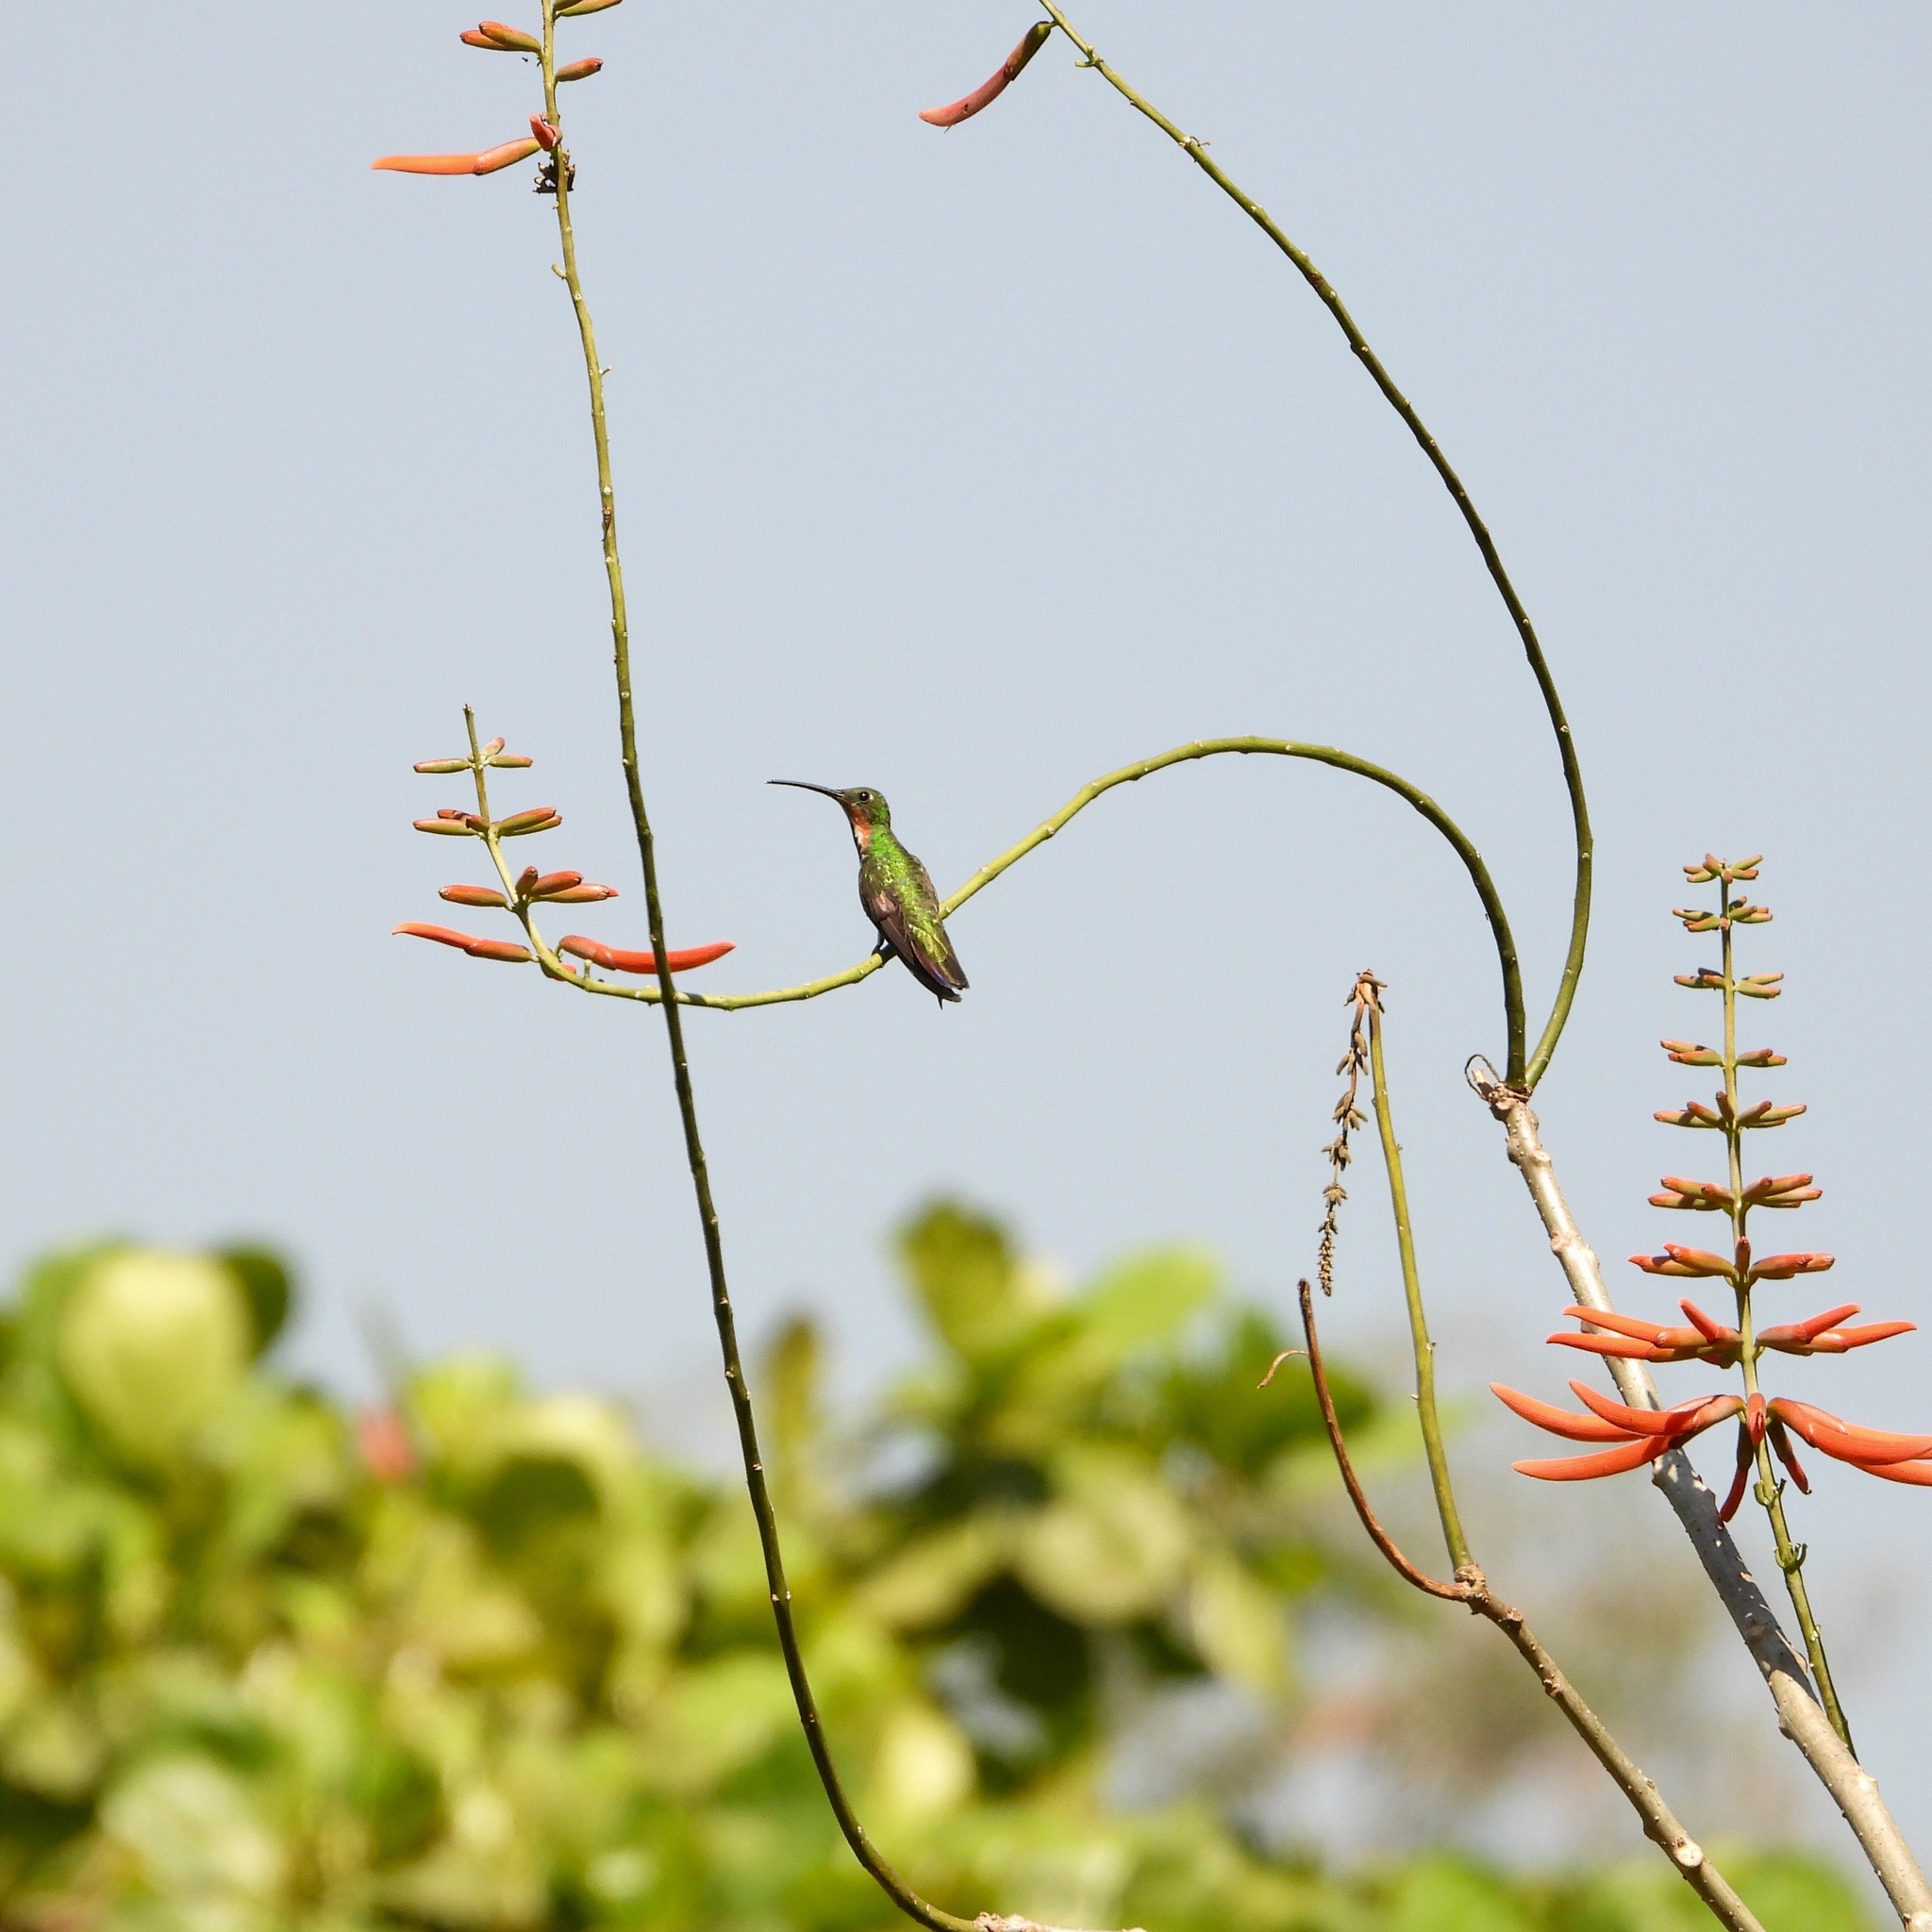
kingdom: Animalia
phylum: Chordata
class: Aves
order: Apodiformes
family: Trochilidae
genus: Anthracothorax
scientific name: Anthracothorax prevostii
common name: Green-breasted mango
